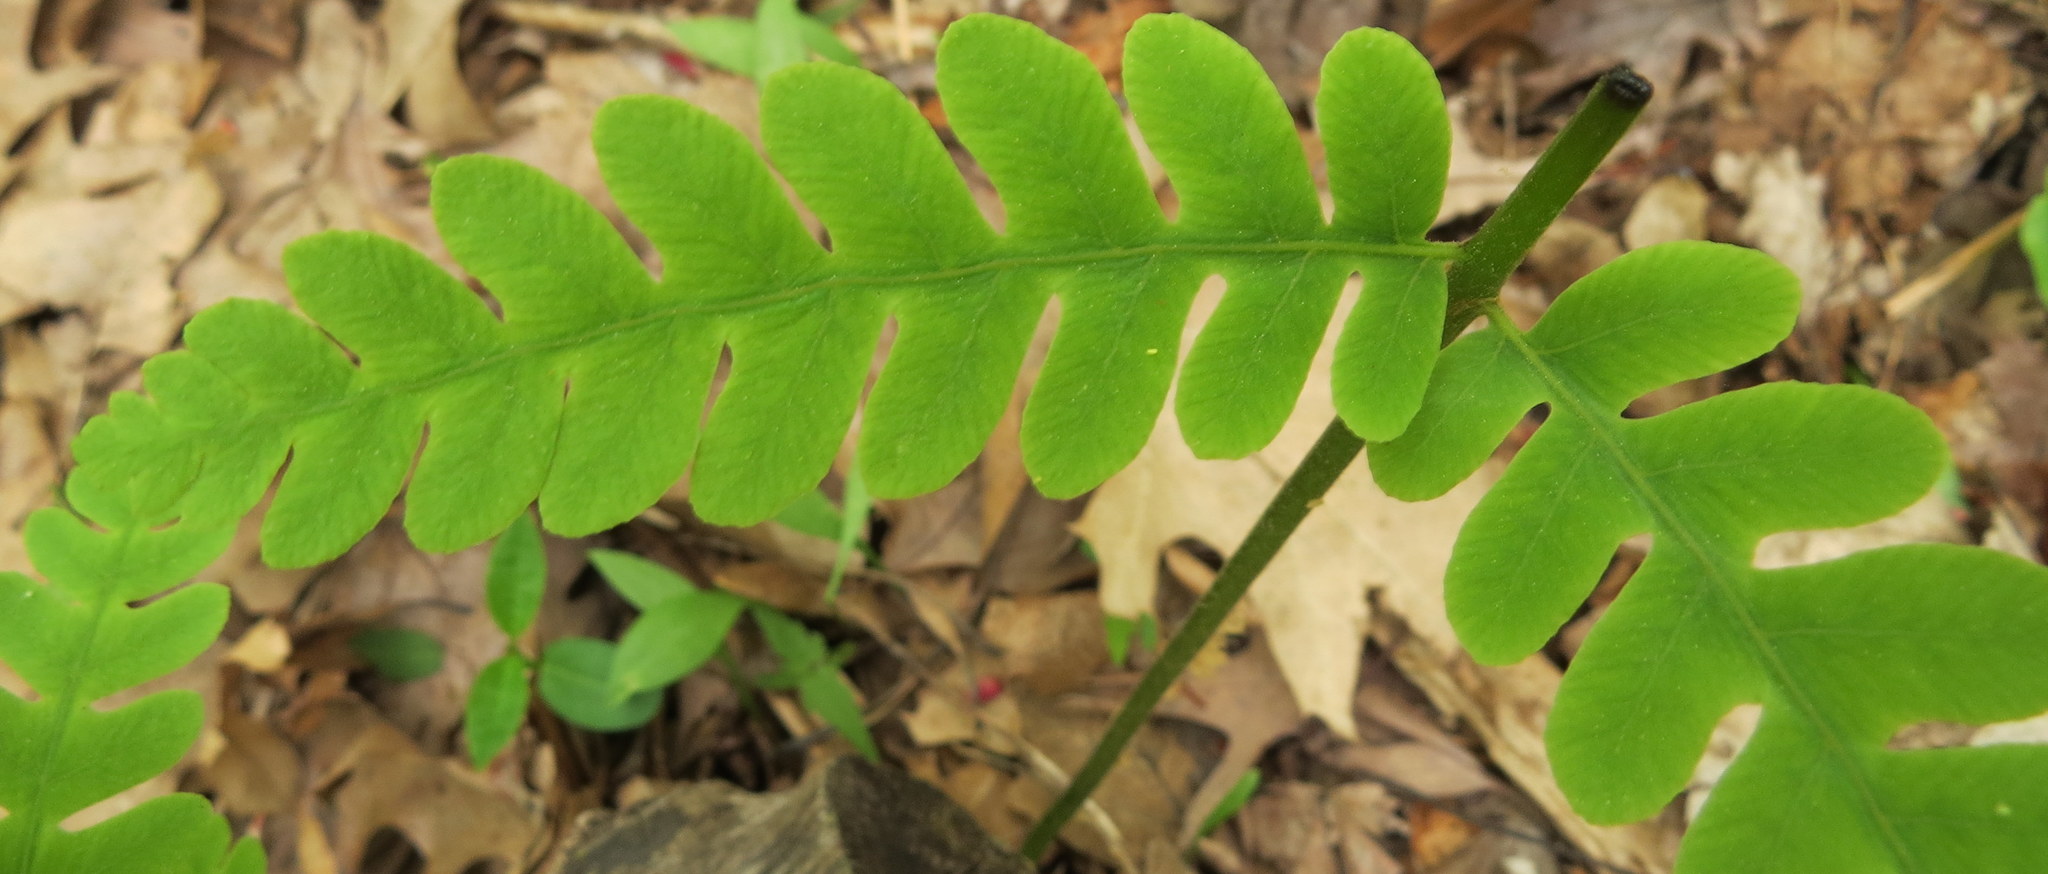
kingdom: Plantae
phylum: Tracheophyta
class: Polypodiopsida
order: Osmundales
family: Osmundaceae
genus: Claytosmunda
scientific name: Claytosmunda claytoniana
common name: Clayton's fern
